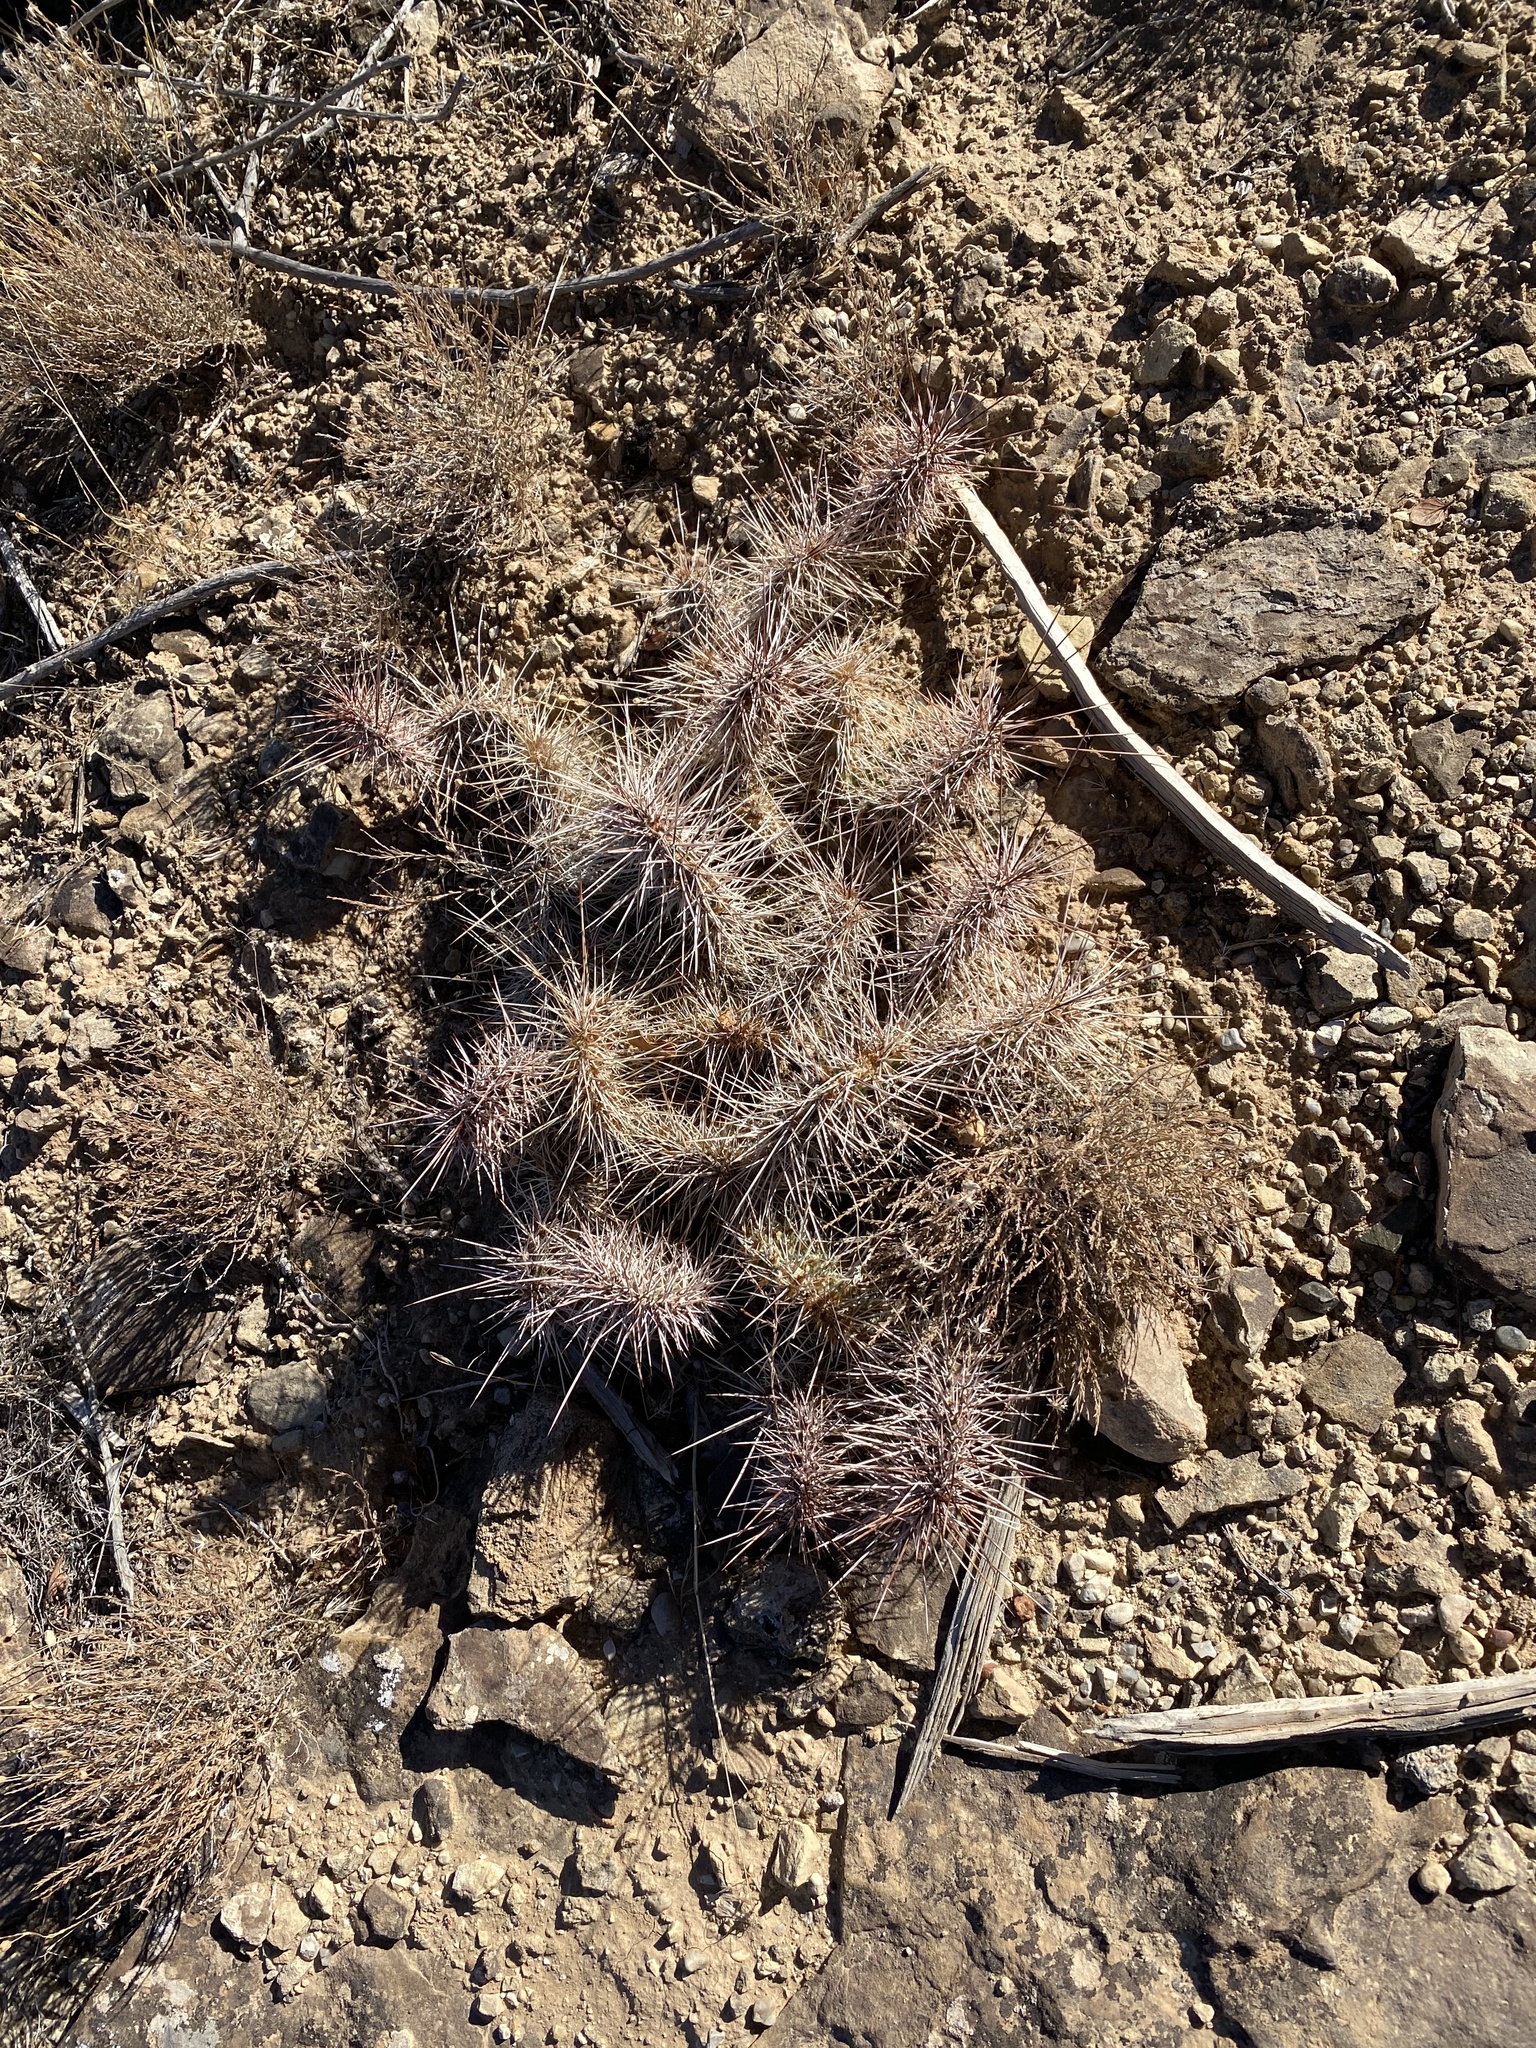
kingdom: Plantae
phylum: Tracheophyta
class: Magnoliopsida
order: Caryophyllales
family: Cactaceae
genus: Opuntia
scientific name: Opuntia polyacantha
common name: Plains prickly-pear
